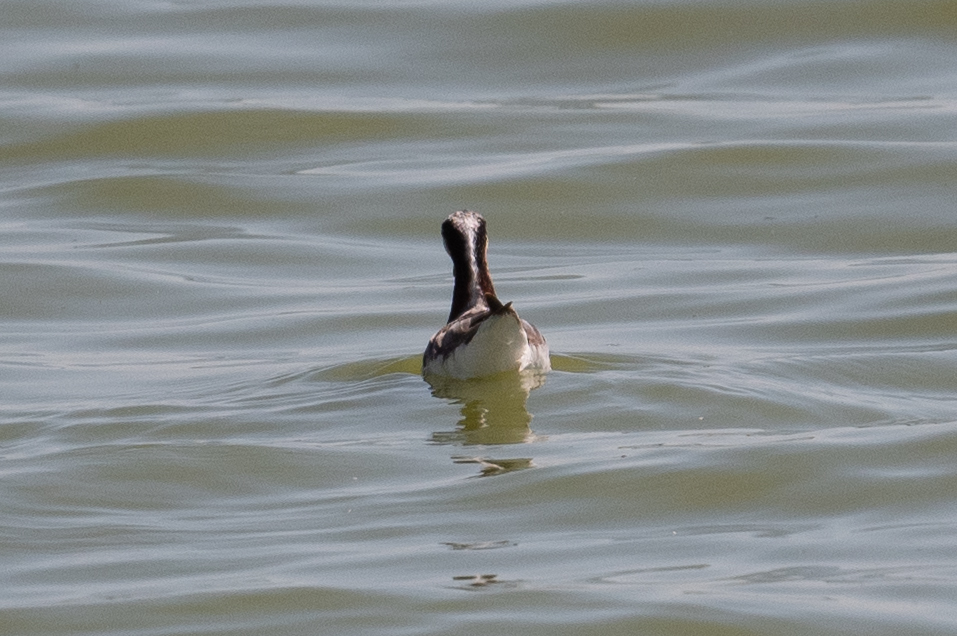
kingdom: Animalia
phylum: Chordata
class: Aves
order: Charadriiformes
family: Scolopacidae
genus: Phalaropus
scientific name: Phalaropus tricolor
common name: Wilson's phalarope
